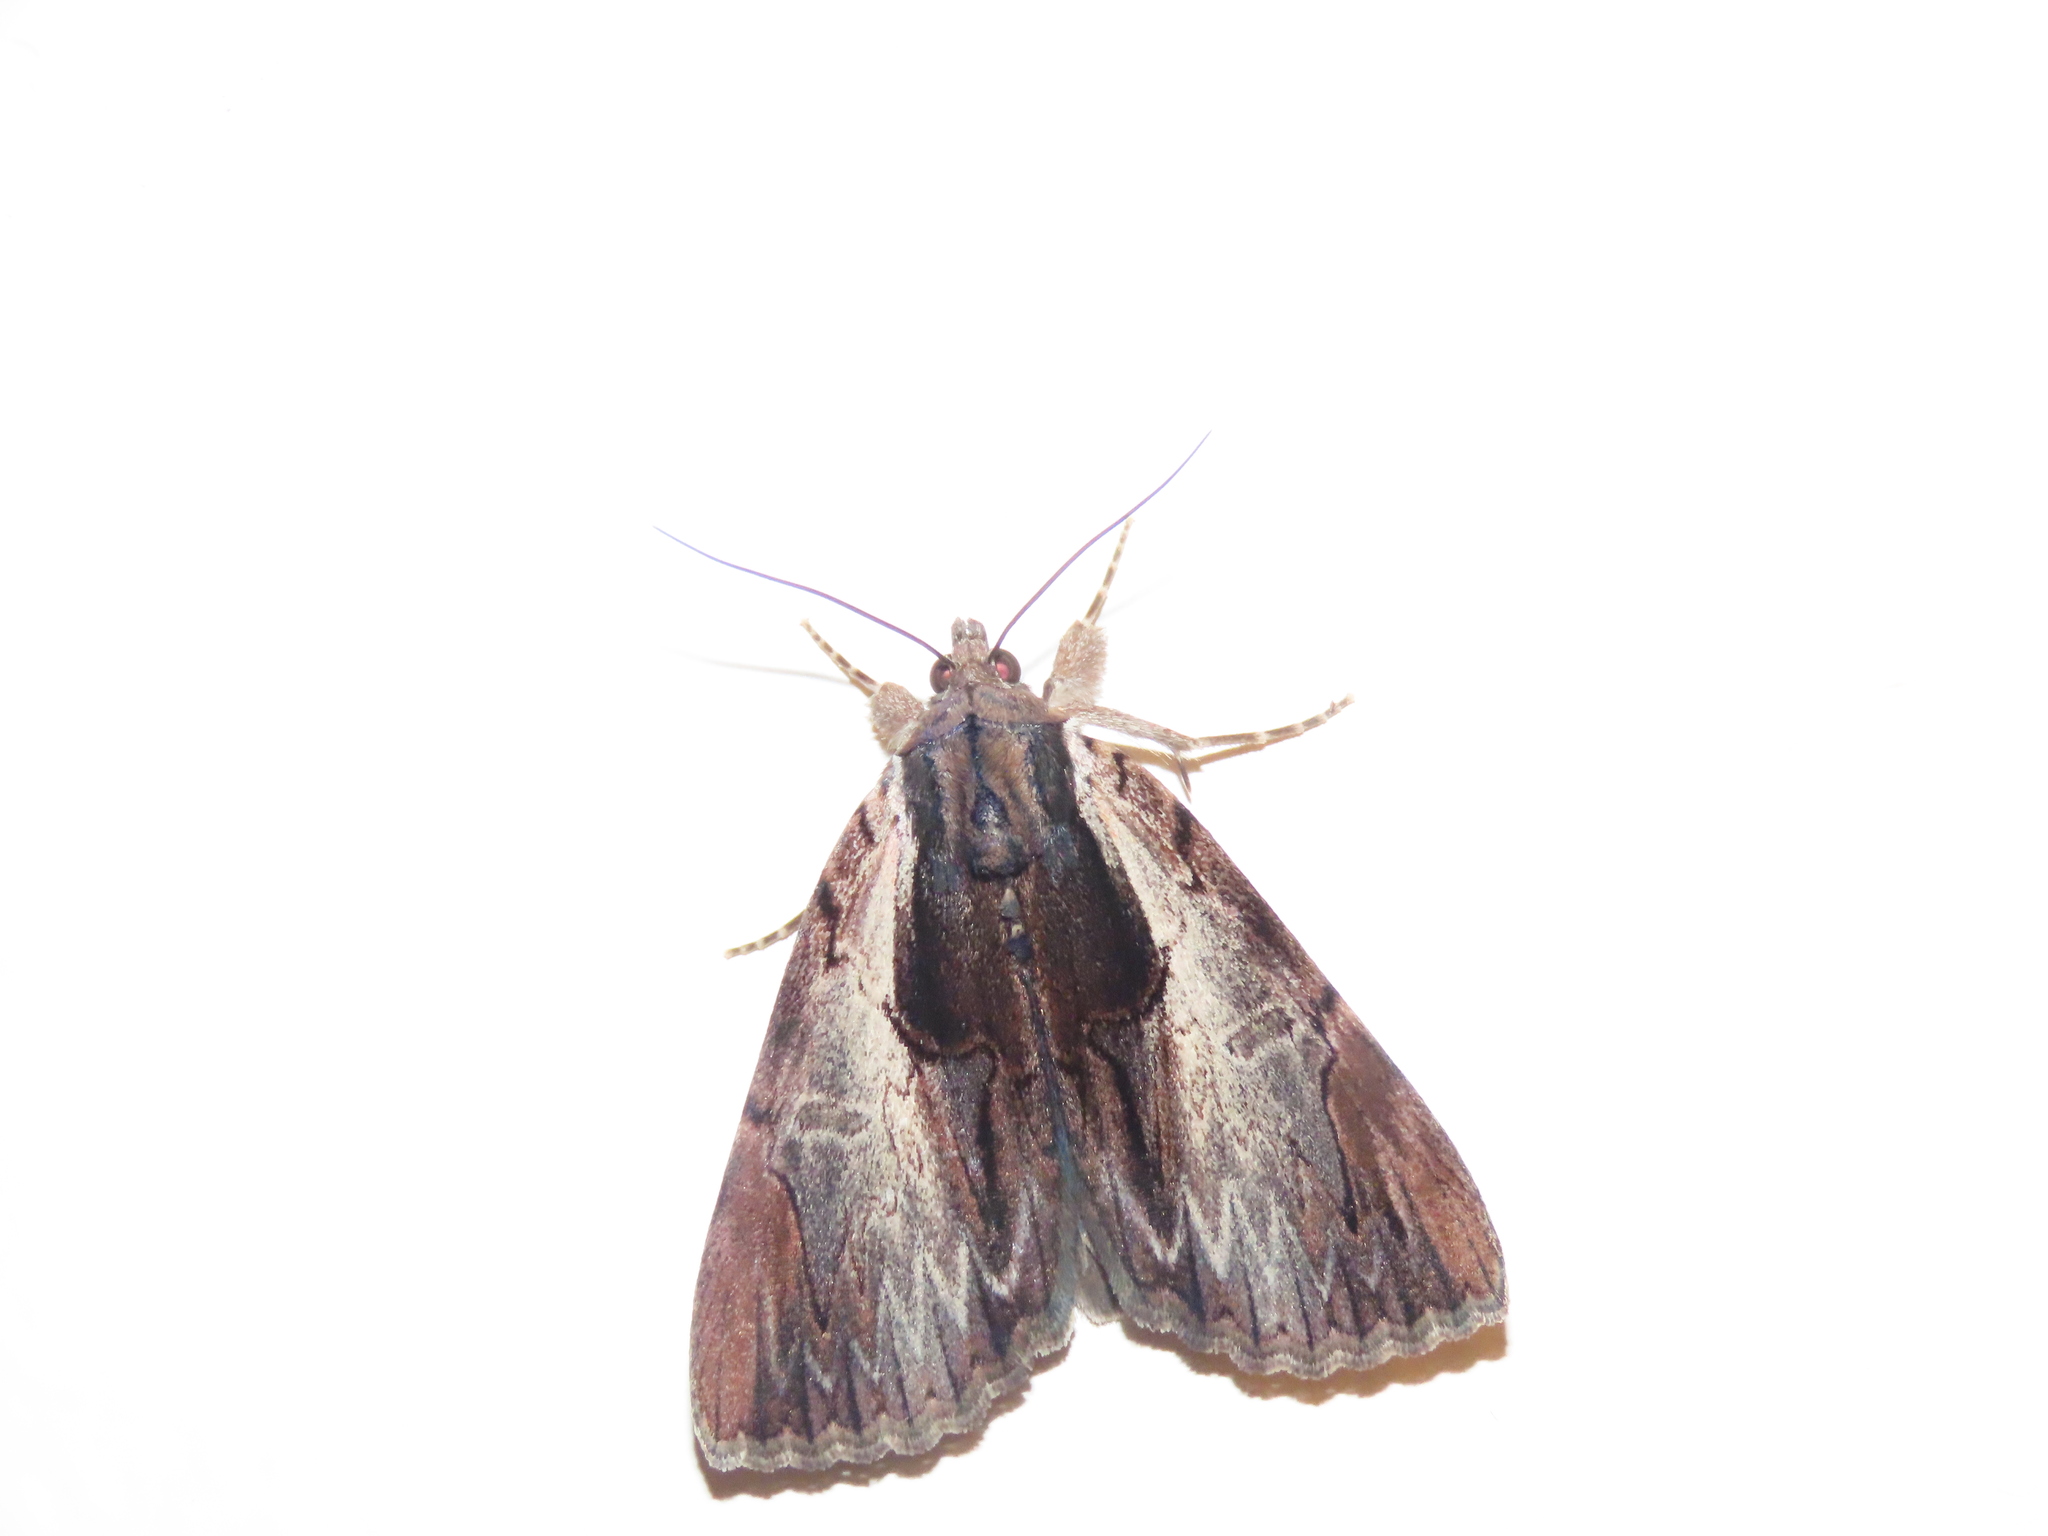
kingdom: Animalia
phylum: Arthropoda
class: Insecta
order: Lepidoptera
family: Erebidae
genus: Catocala
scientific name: Catocala ultronia
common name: Ultronia underwing
